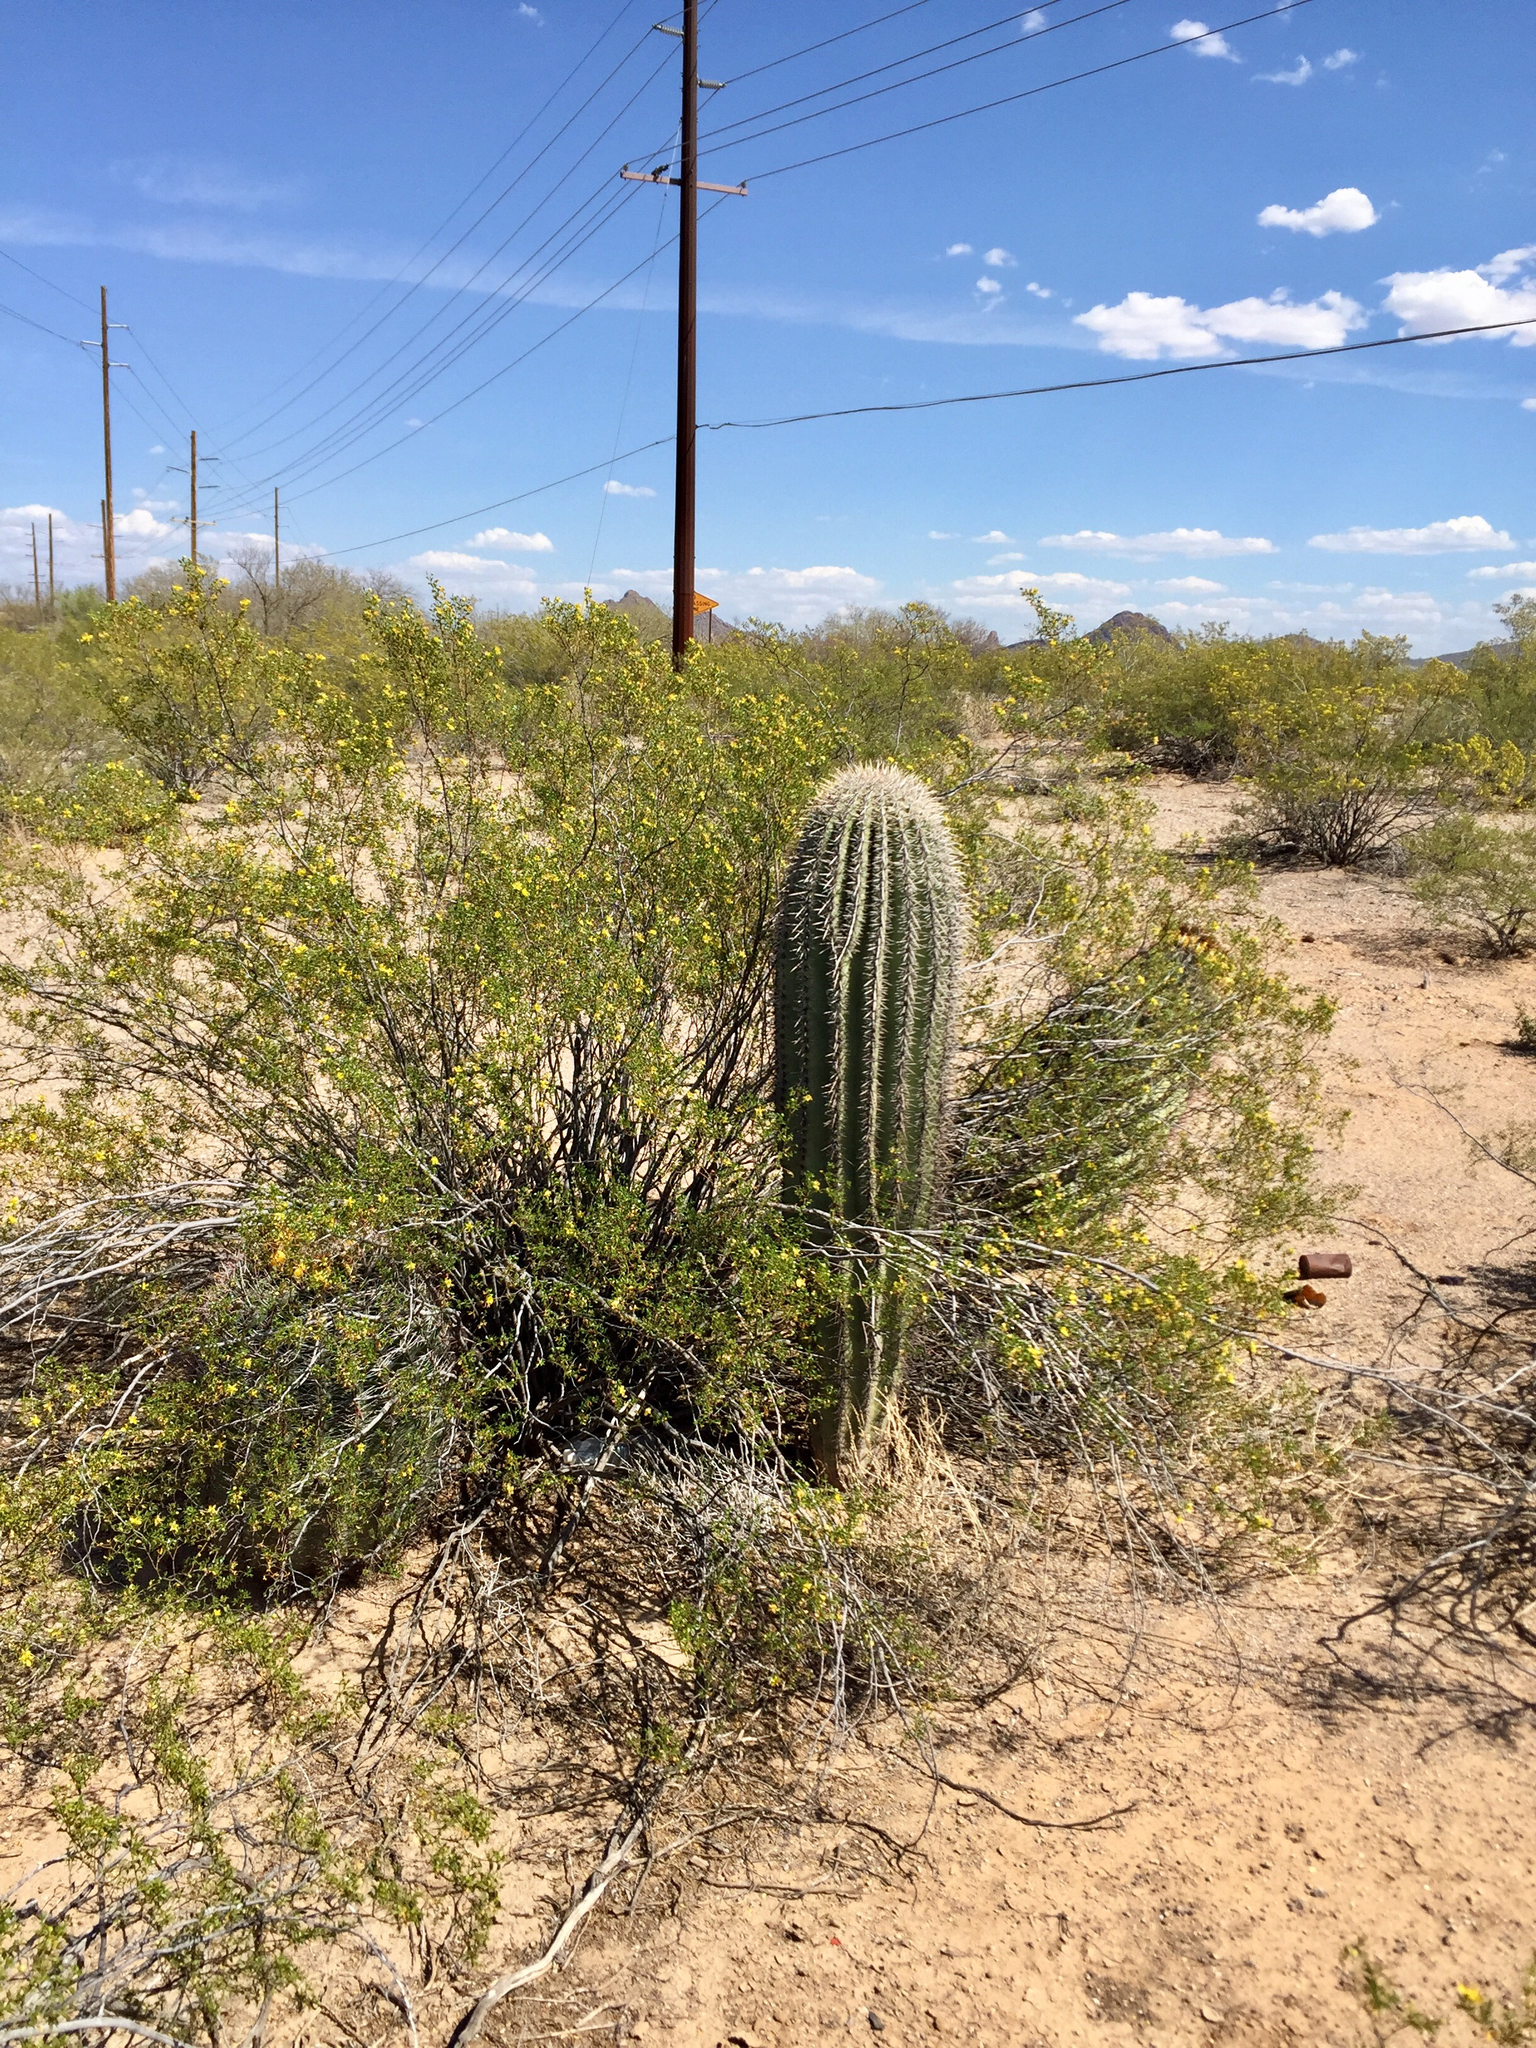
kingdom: Plantae
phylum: Tracheophyta
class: Magnoliopsida
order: Zygophyllales
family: Zygophyllaceae
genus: Larrea
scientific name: Larrea tridentata
